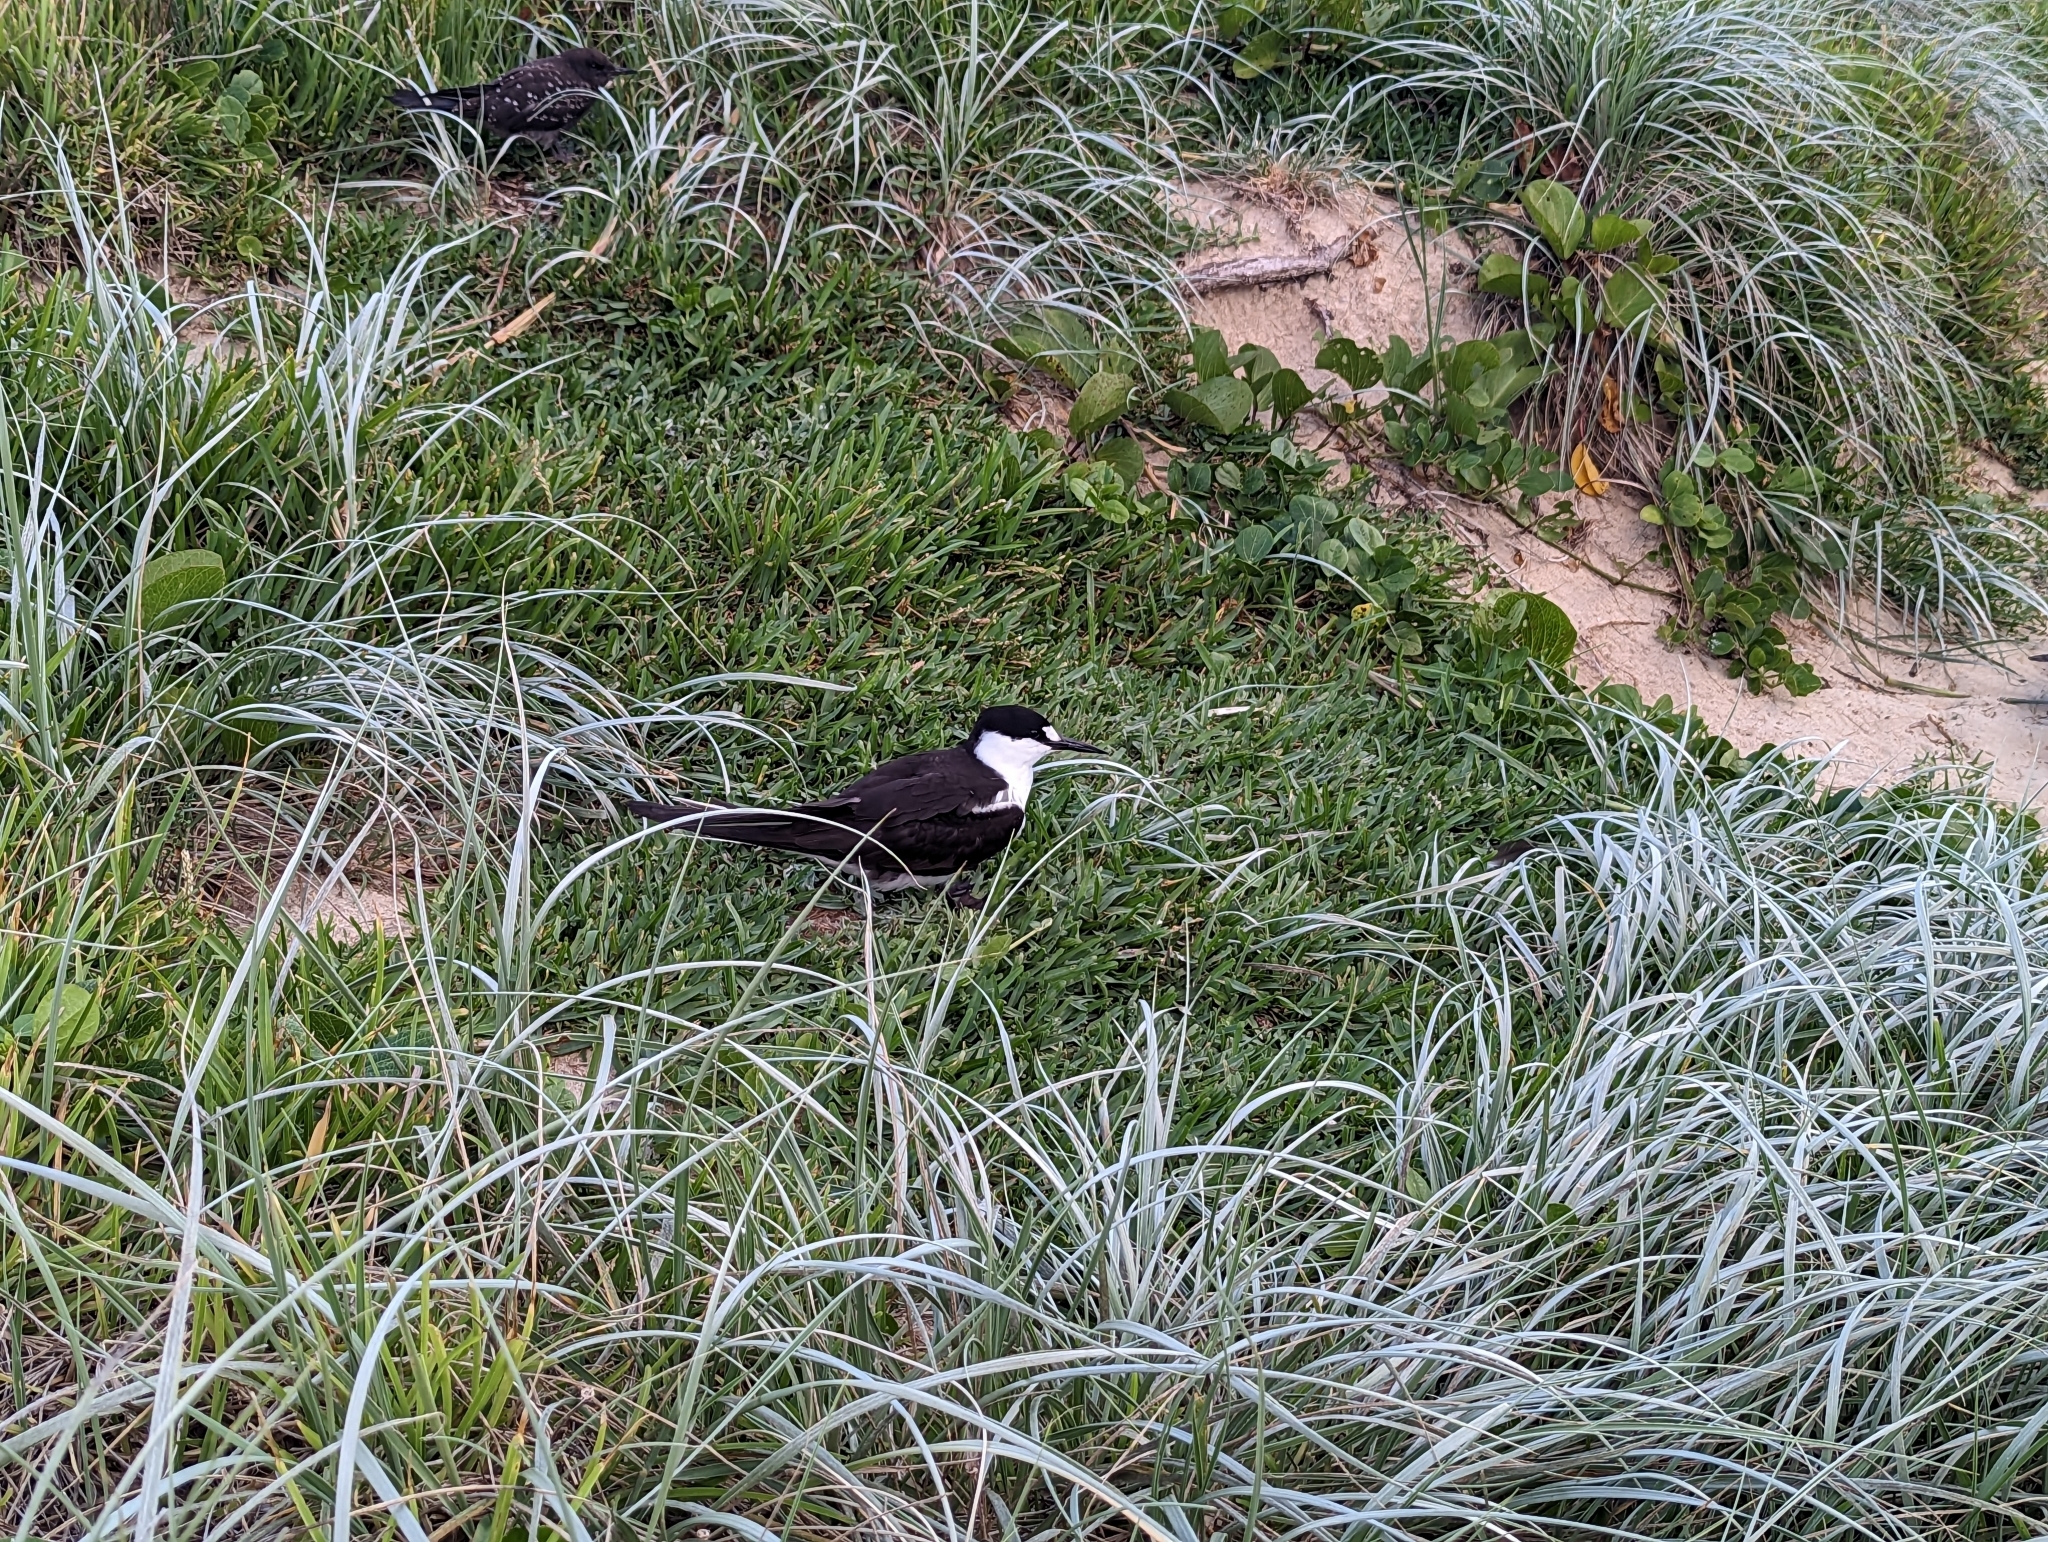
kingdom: Animalia
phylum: Chordata
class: Aves
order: Charadriiformes
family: Laridae
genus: Onychoprion
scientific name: Onychoprion fuscatus
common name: Sooty tern
